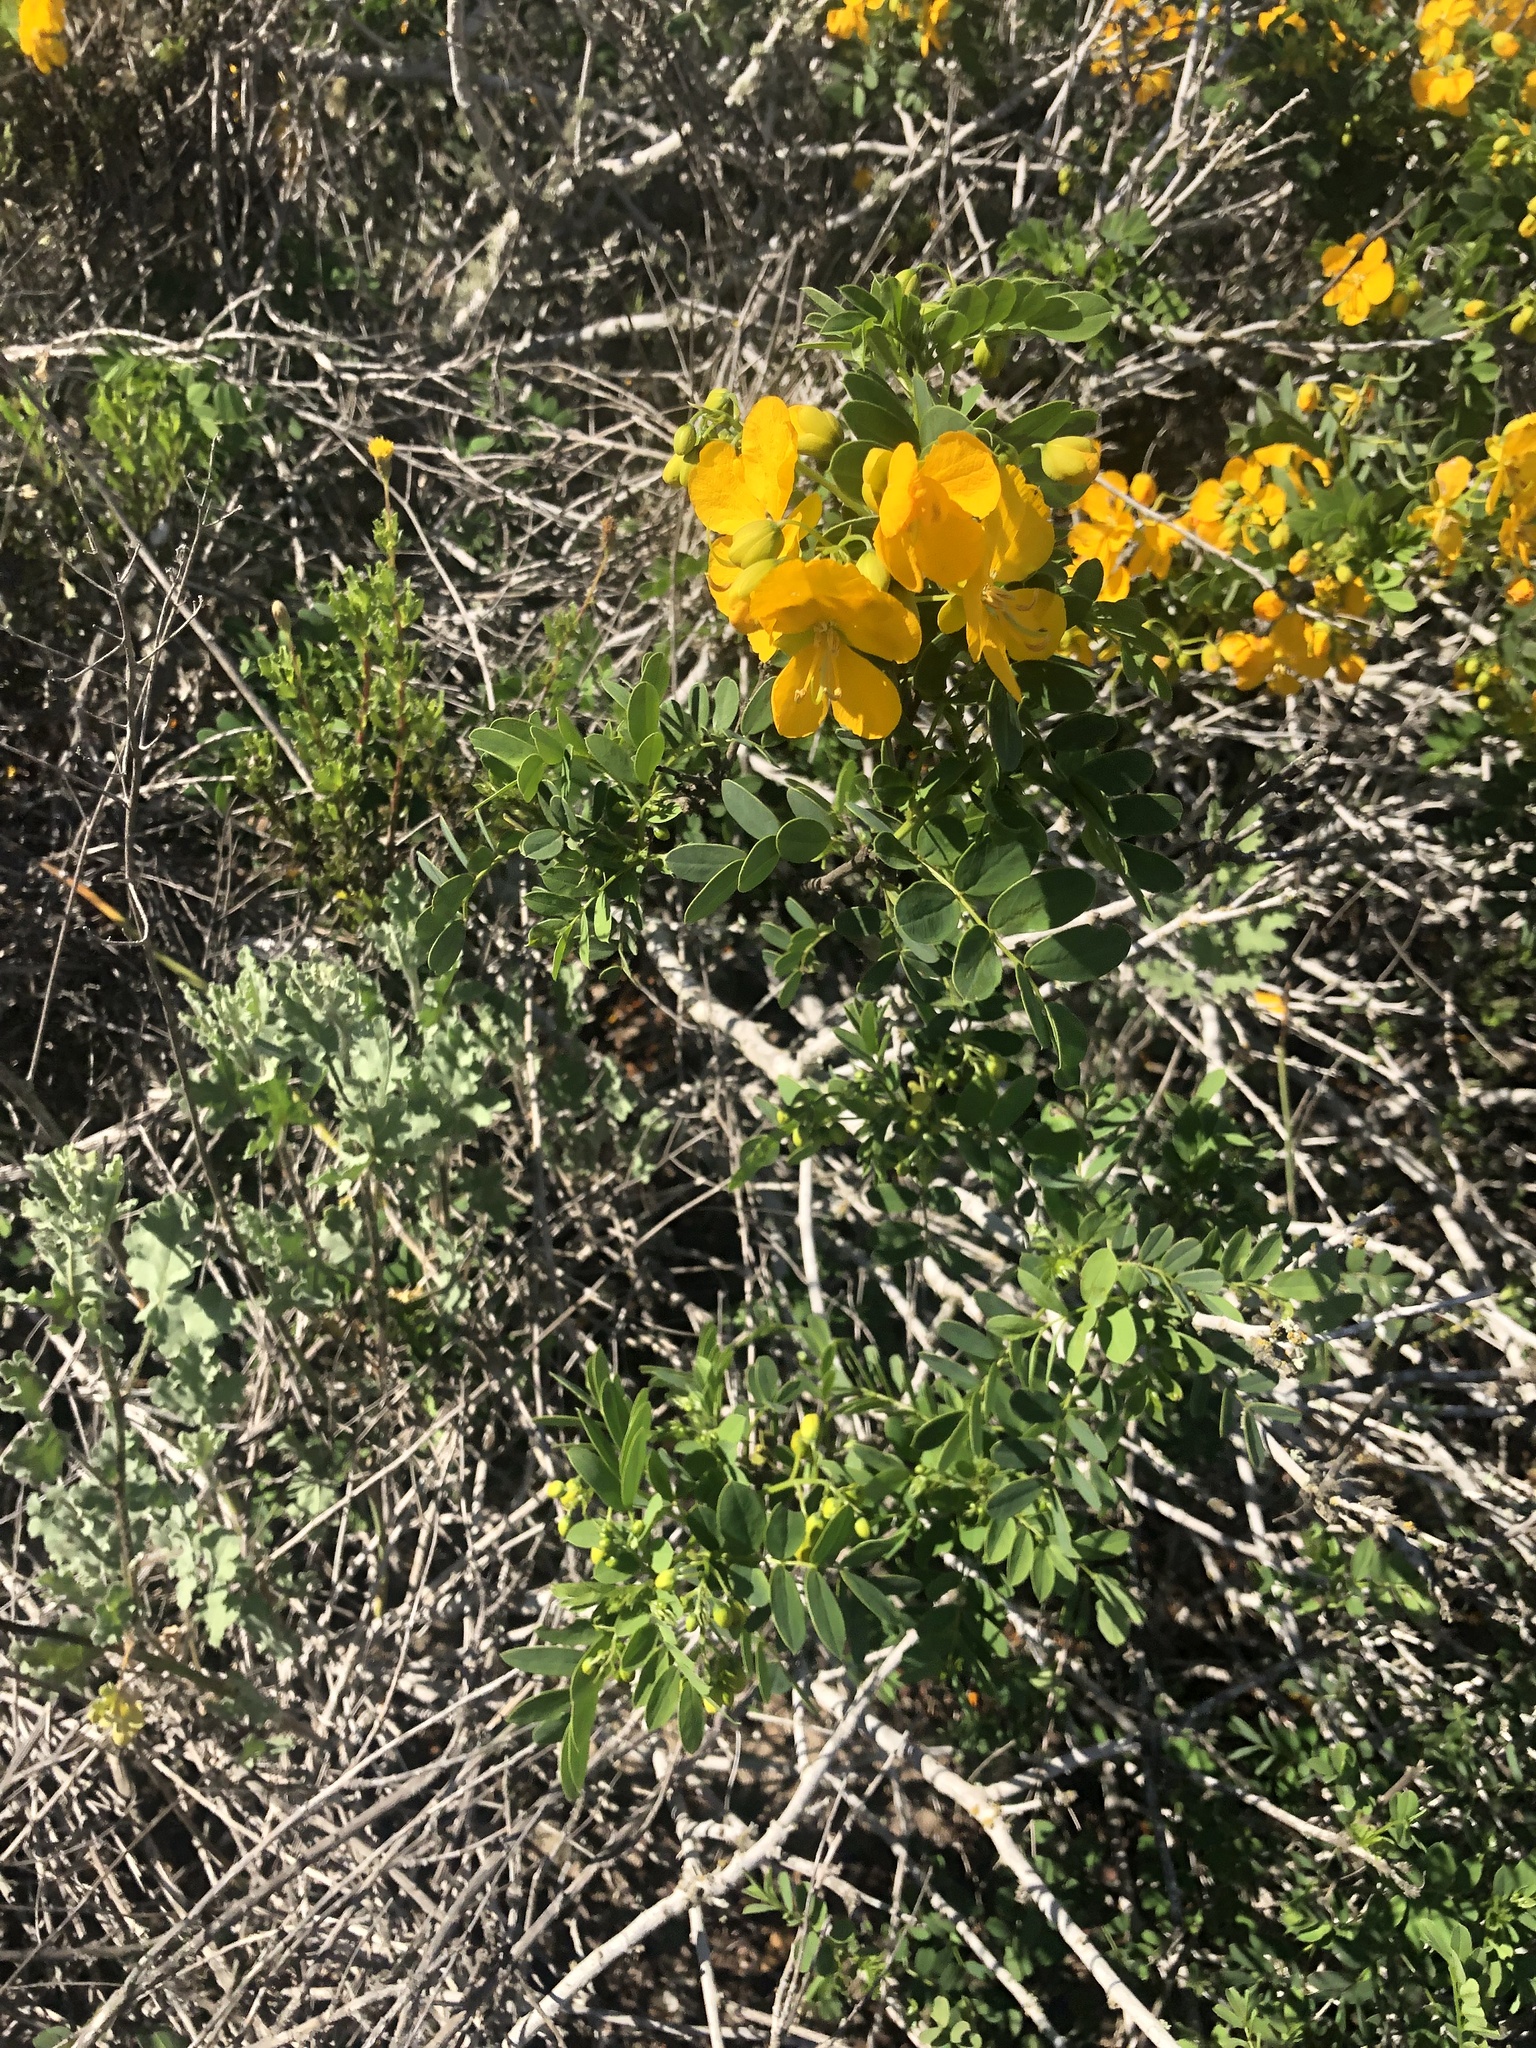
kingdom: Plantae
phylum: Tracheophyta
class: Magnoliopsida
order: Fabales
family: Fabaceae
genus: Senna
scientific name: Senna cumingii
